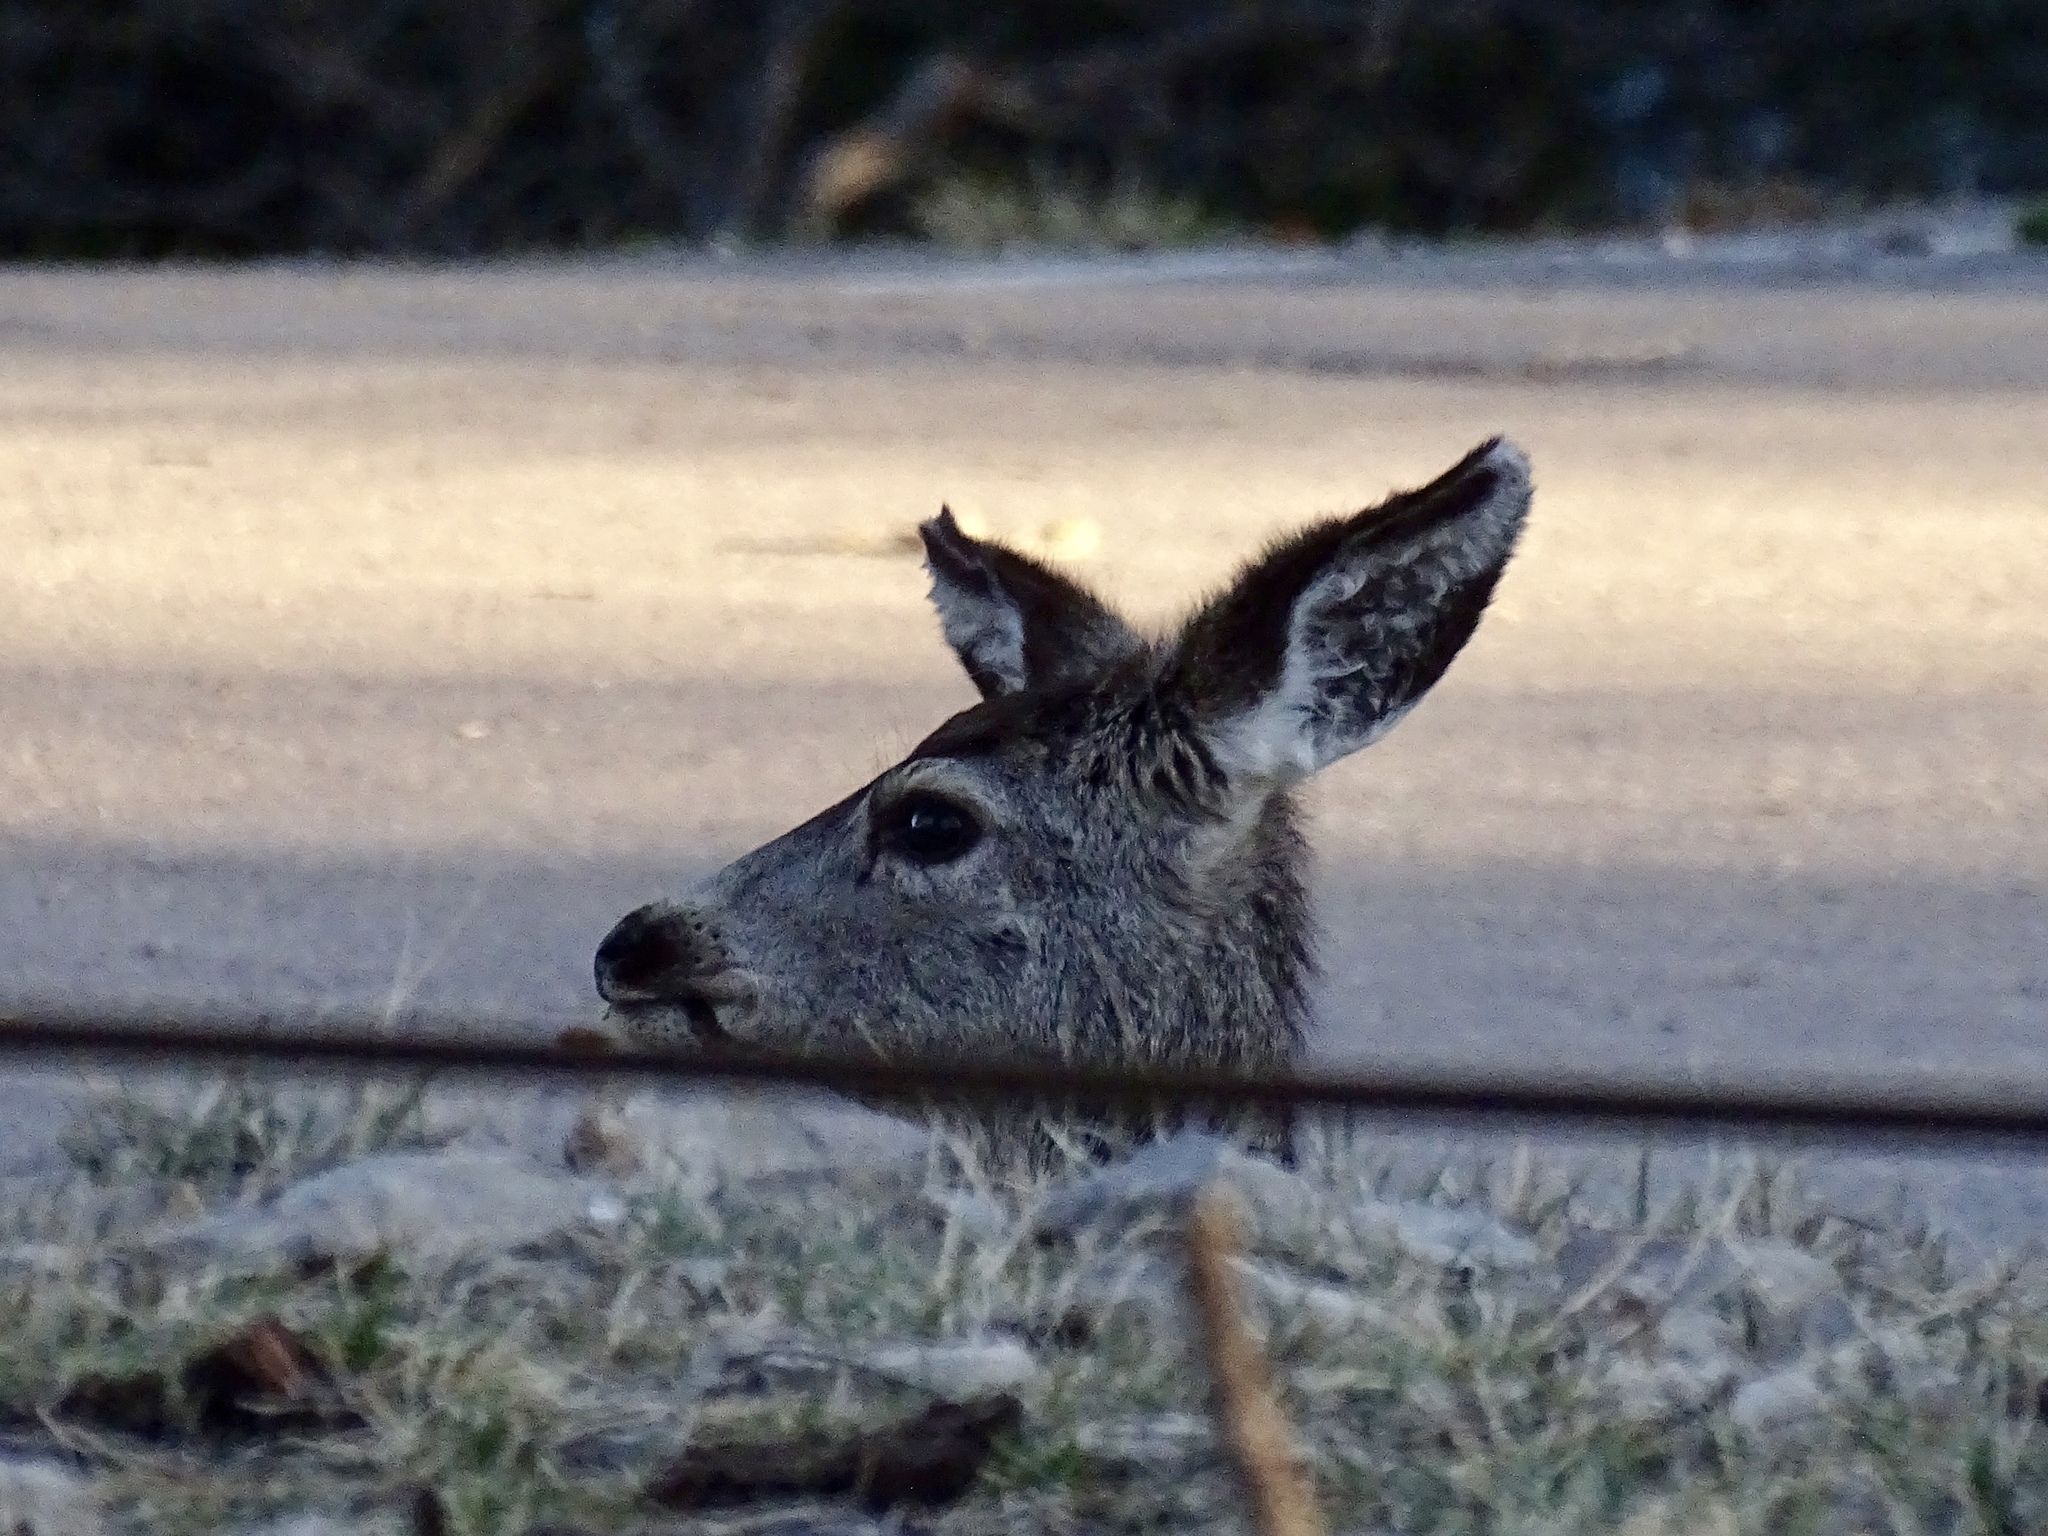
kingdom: Animalia
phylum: Chordata
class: Mammalia
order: Artiodactyla
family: Cervidae
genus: Odocoileus
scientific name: Odocoileus hemionus
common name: Mule deer
